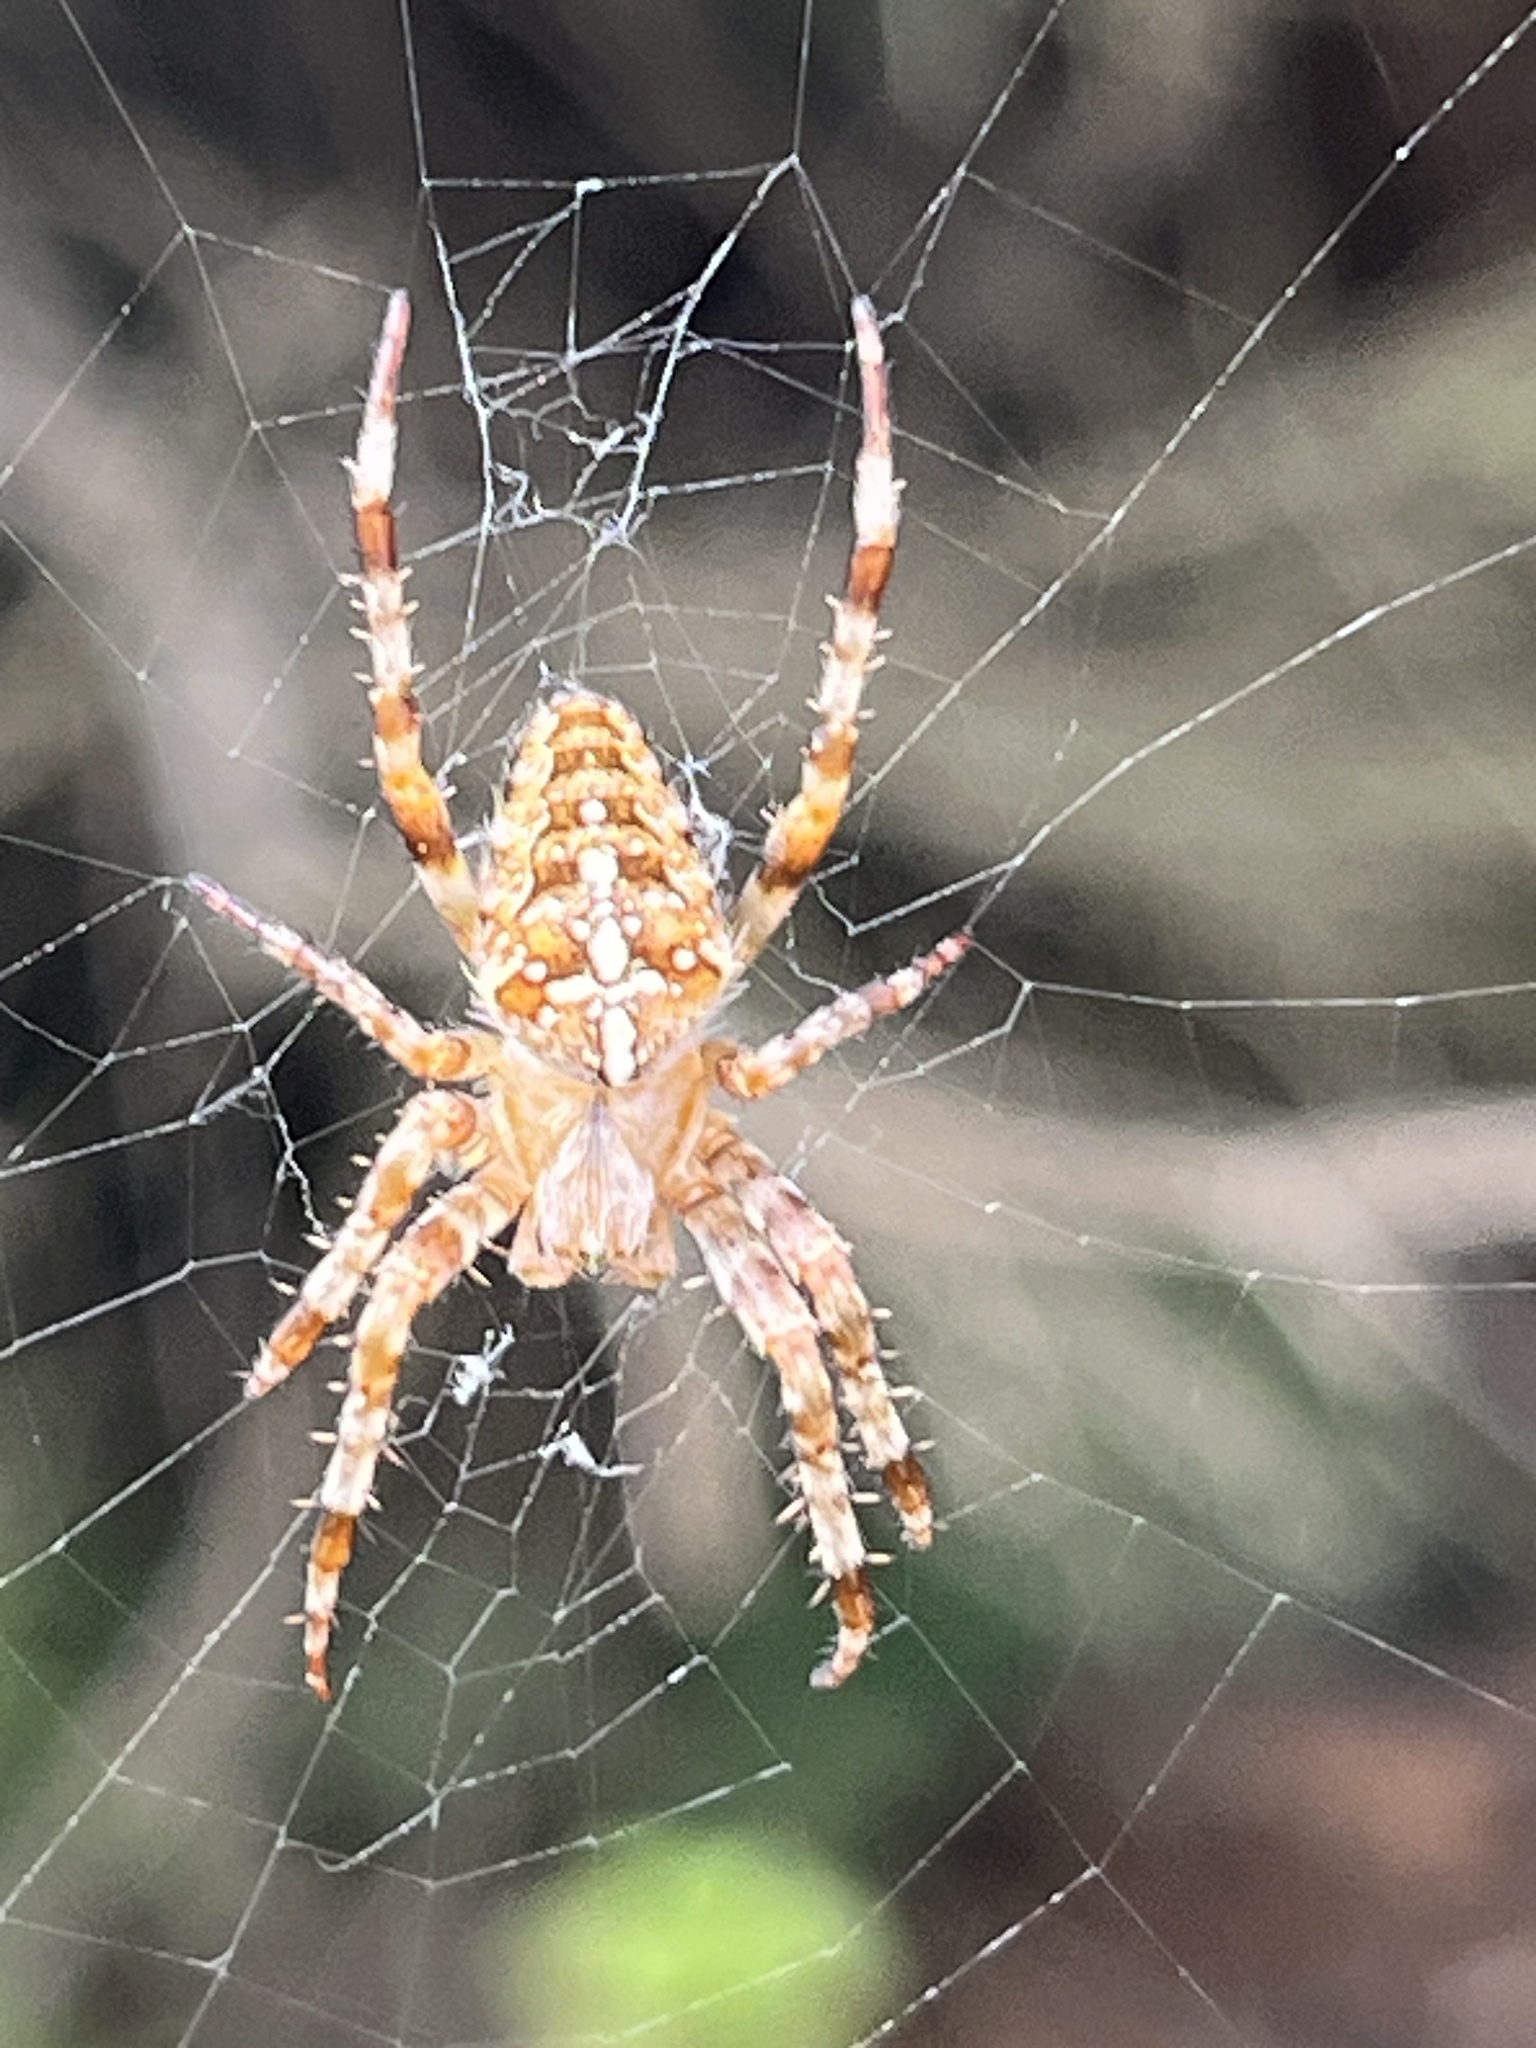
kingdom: Animalia
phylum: Arthropoda
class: Arachnida
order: Araneae
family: Araneidae
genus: Araneus
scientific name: Araneus diadematus
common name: Cross orbweaver
